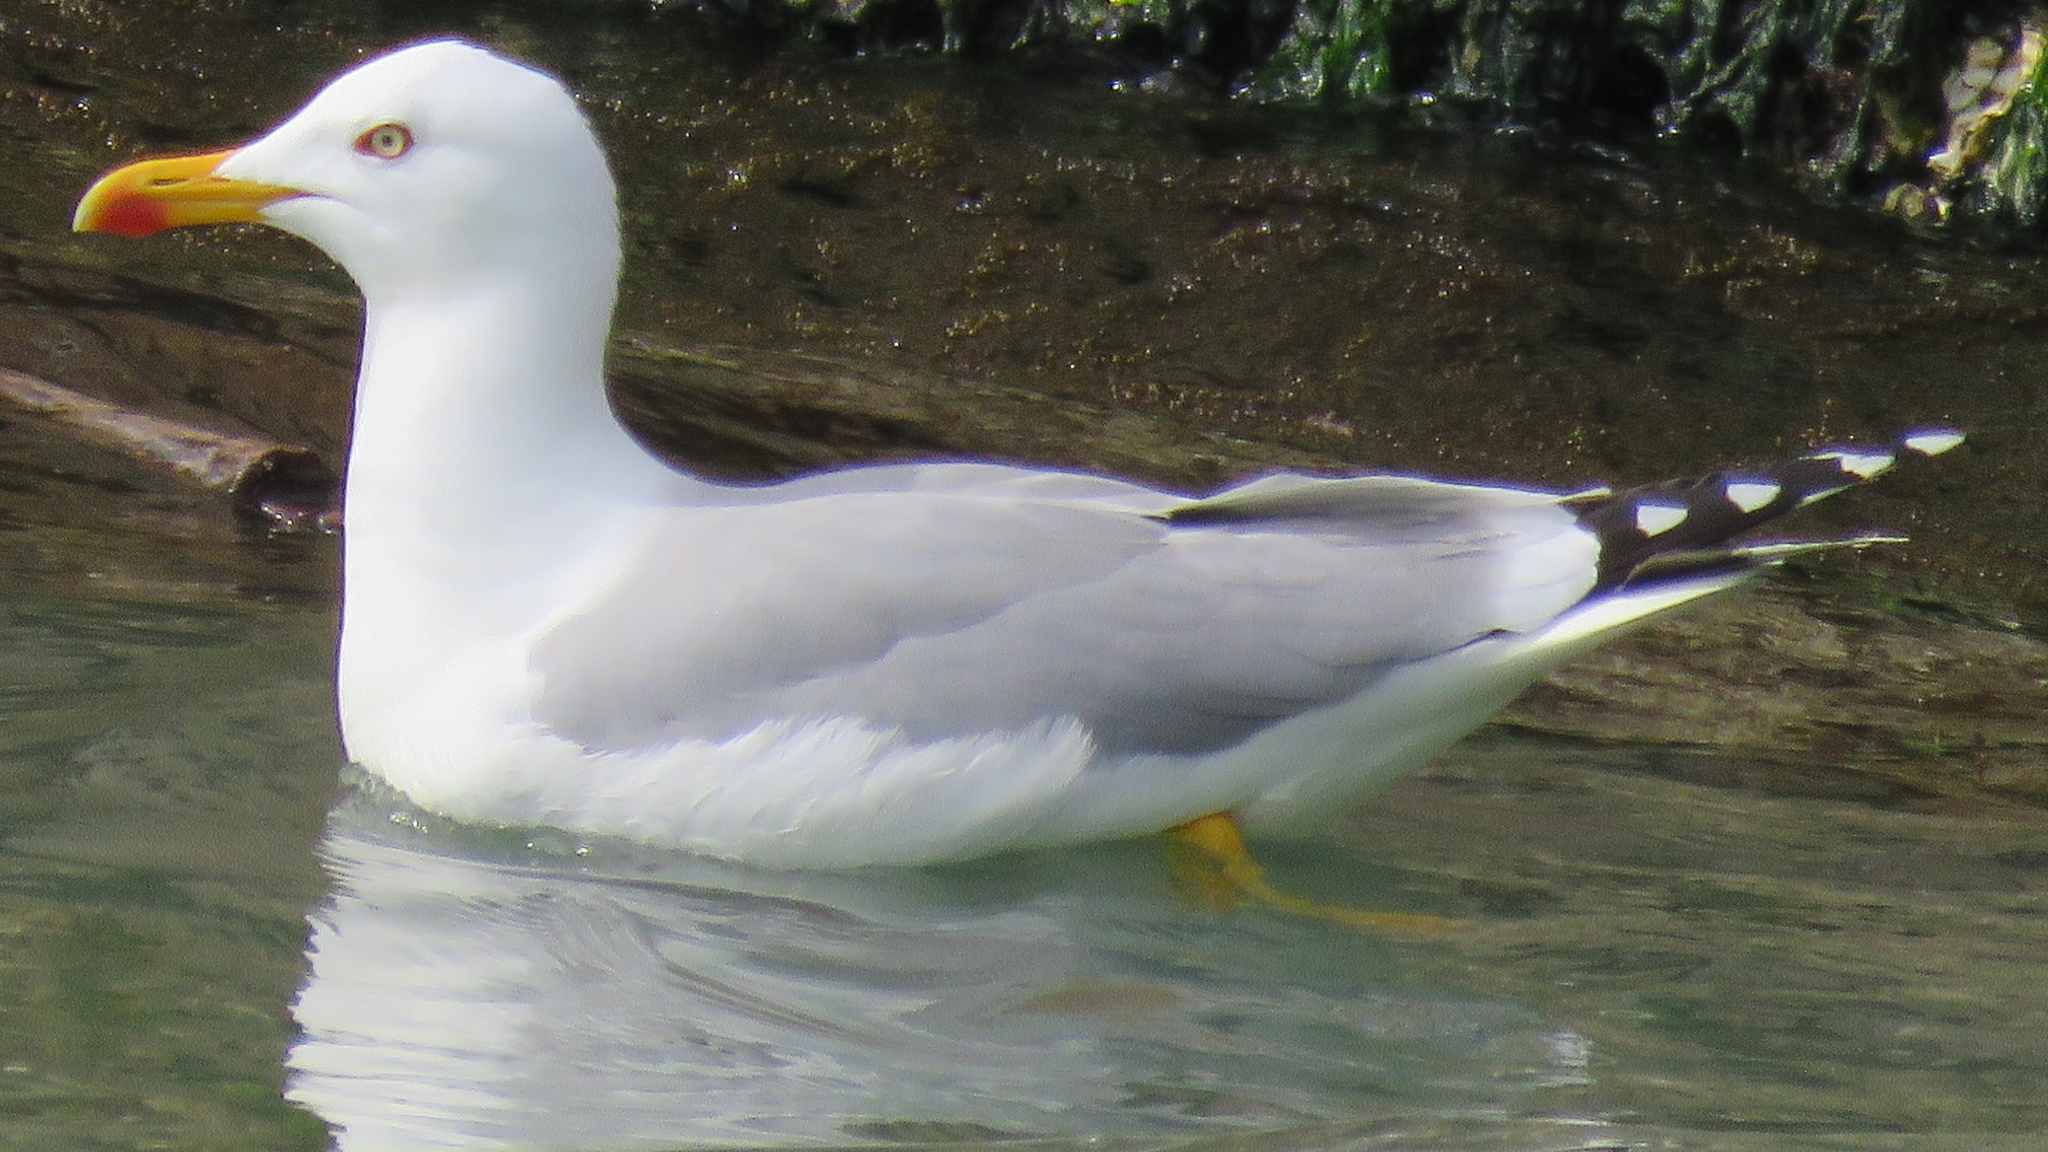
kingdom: Animalia
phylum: Chordata
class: Aves
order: Charadriiformes
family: Laridae
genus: Larus
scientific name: Larus michahellis
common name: Yellow-legged gull
